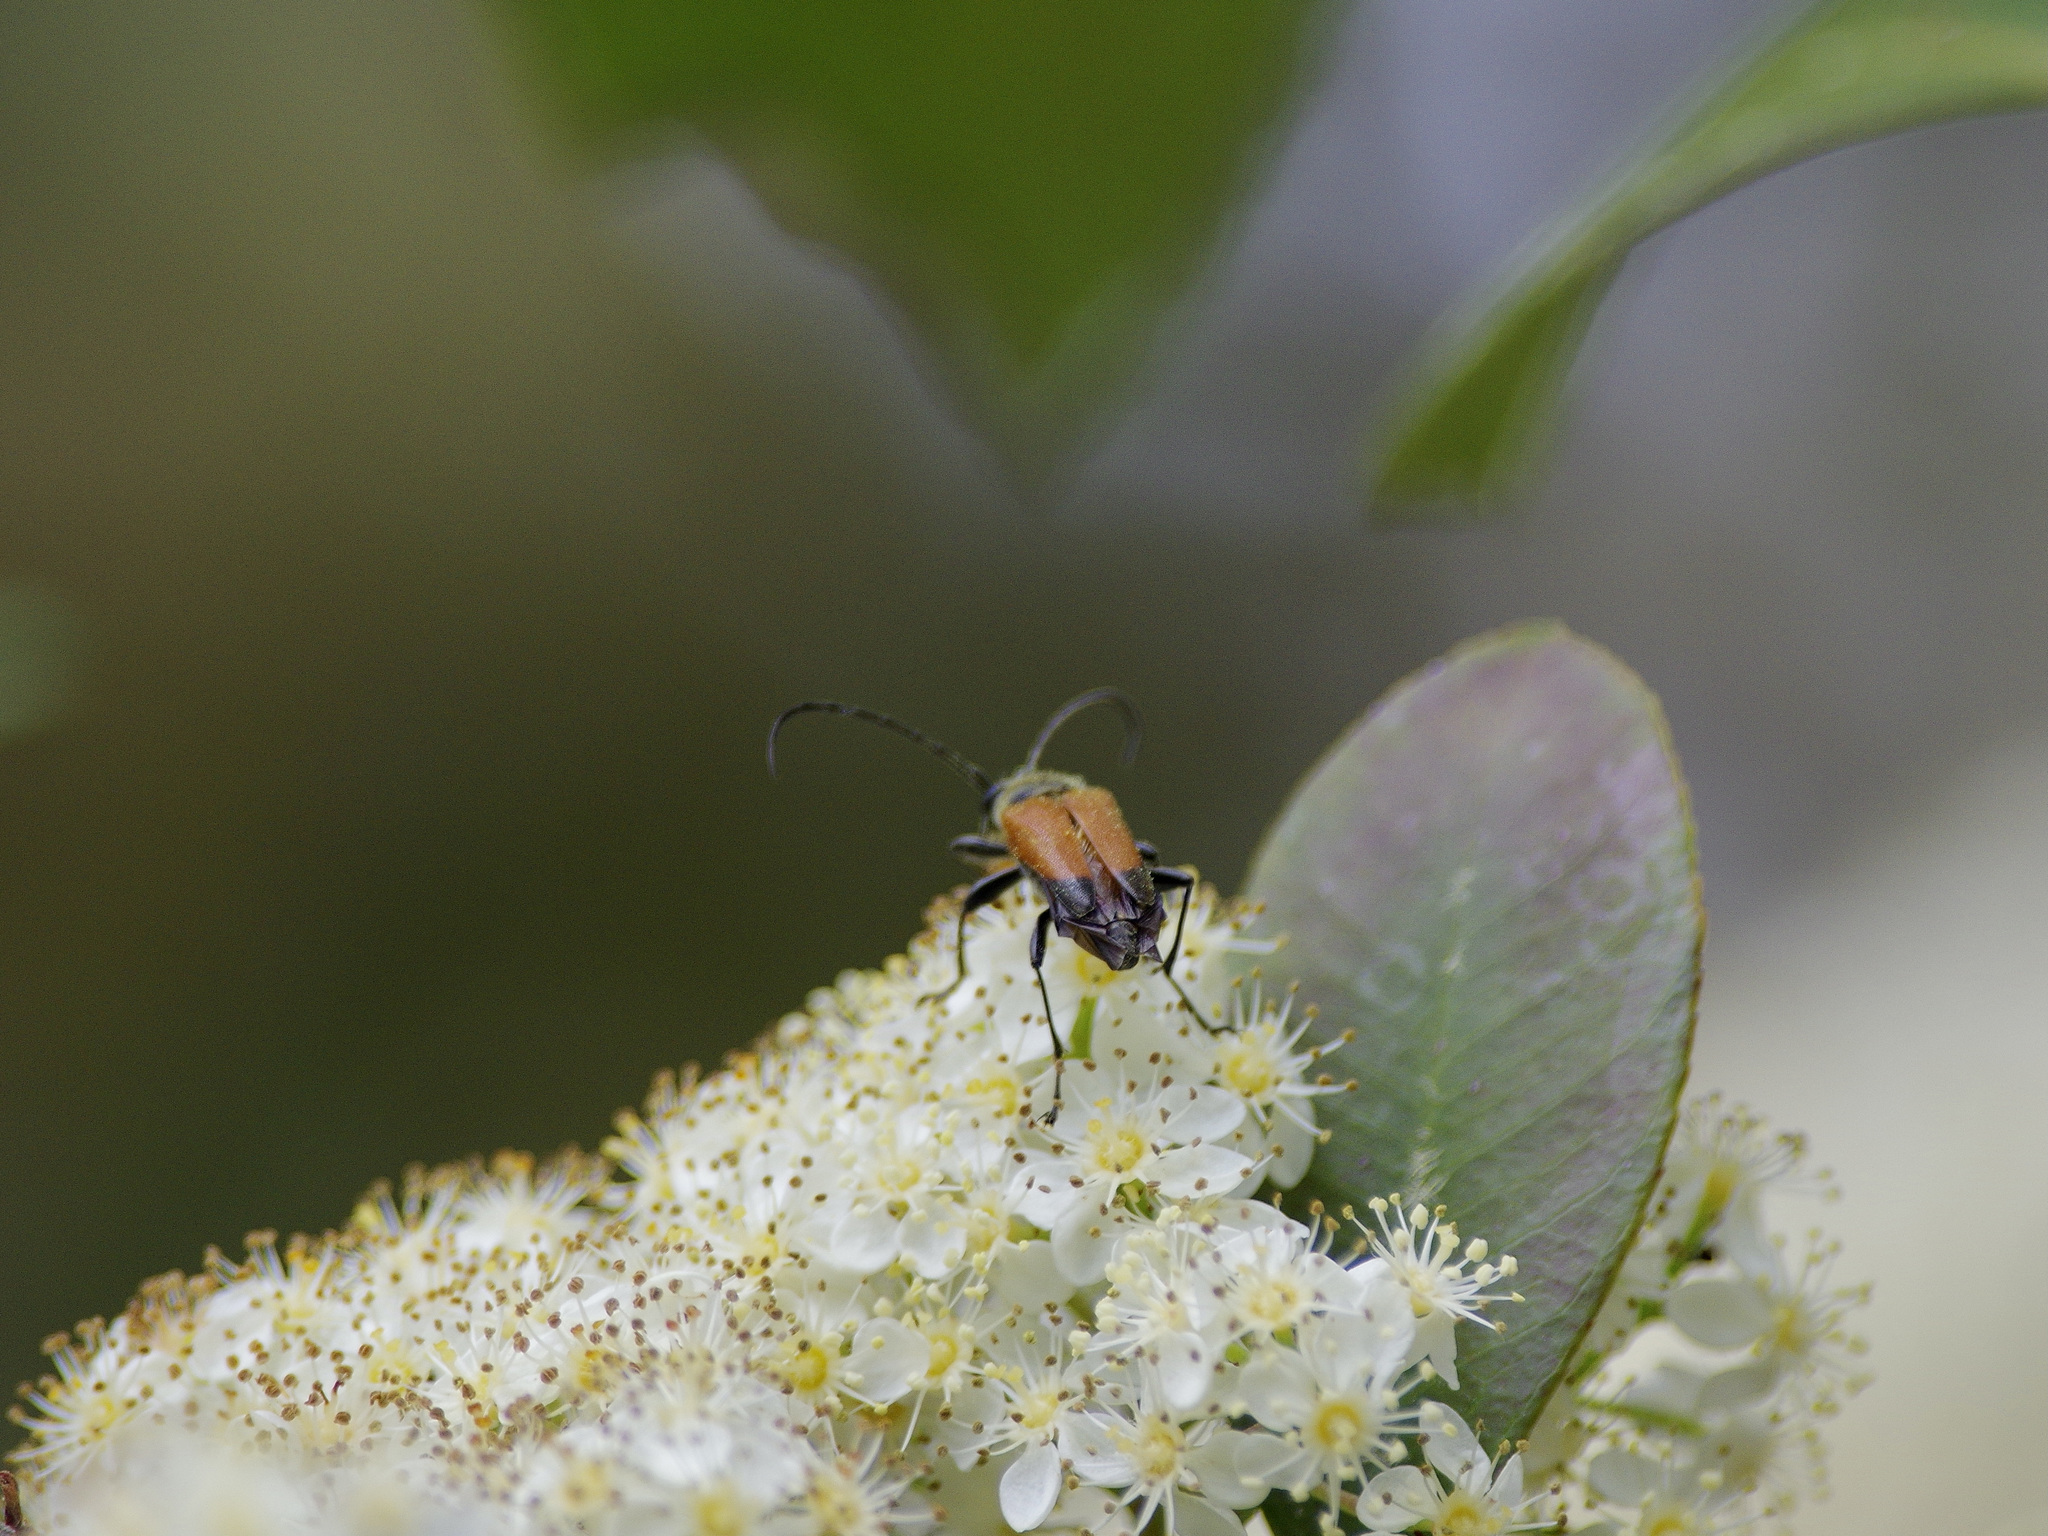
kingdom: Animalia
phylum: Arthropoda
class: Insecta
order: Coleoptera
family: Cerambycidae
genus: Trigonarthris
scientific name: Trigonarthris atrata
